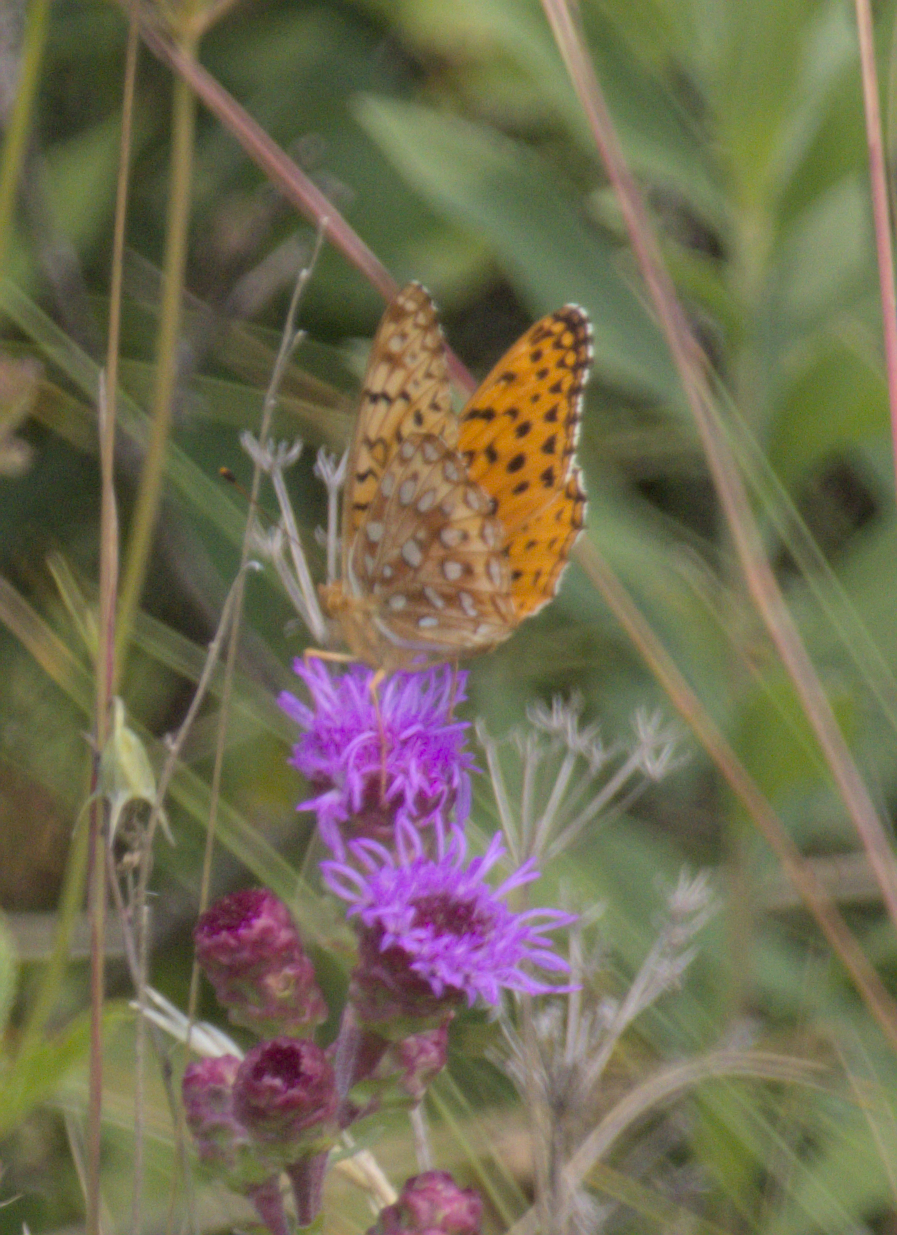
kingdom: Plantae
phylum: Tracheophyta
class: Magnoliopsida
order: Asterales
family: Asteraceae
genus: Liatris
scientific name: Liatris ligulistylis
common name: Northern plains gayfeather
